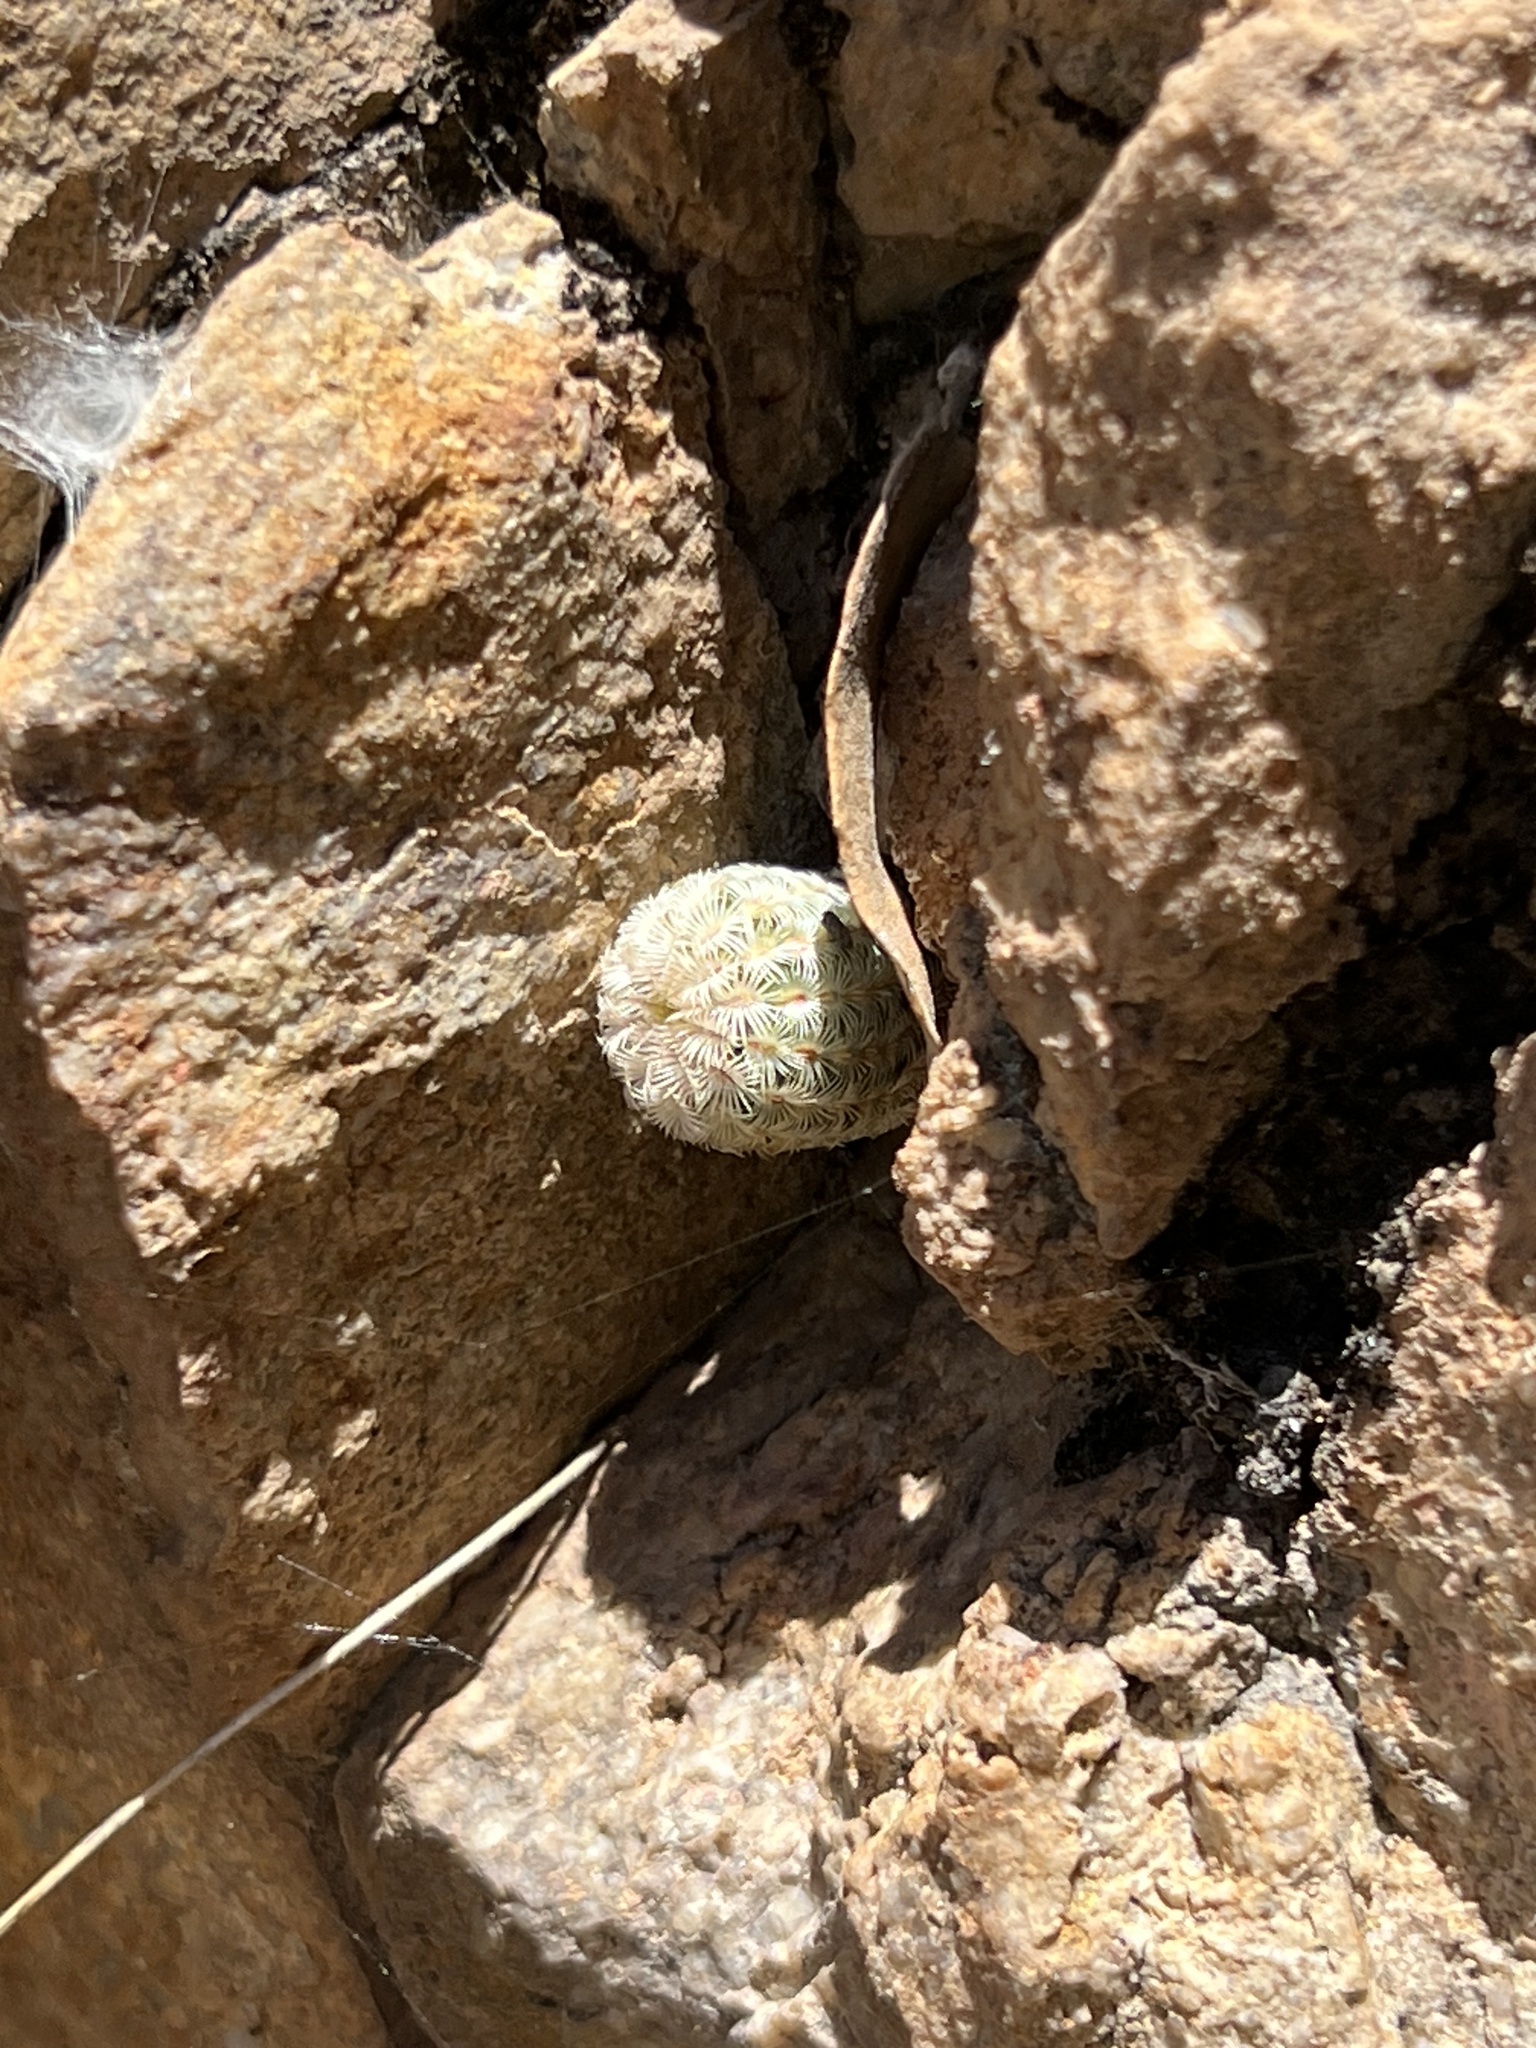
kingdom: Plantae
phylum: Tracheophyta
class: Magnoliopsida
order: Caryophyllales
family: Cactaceae
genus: Echinocereus
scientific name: Echinocereus rigidissimus
